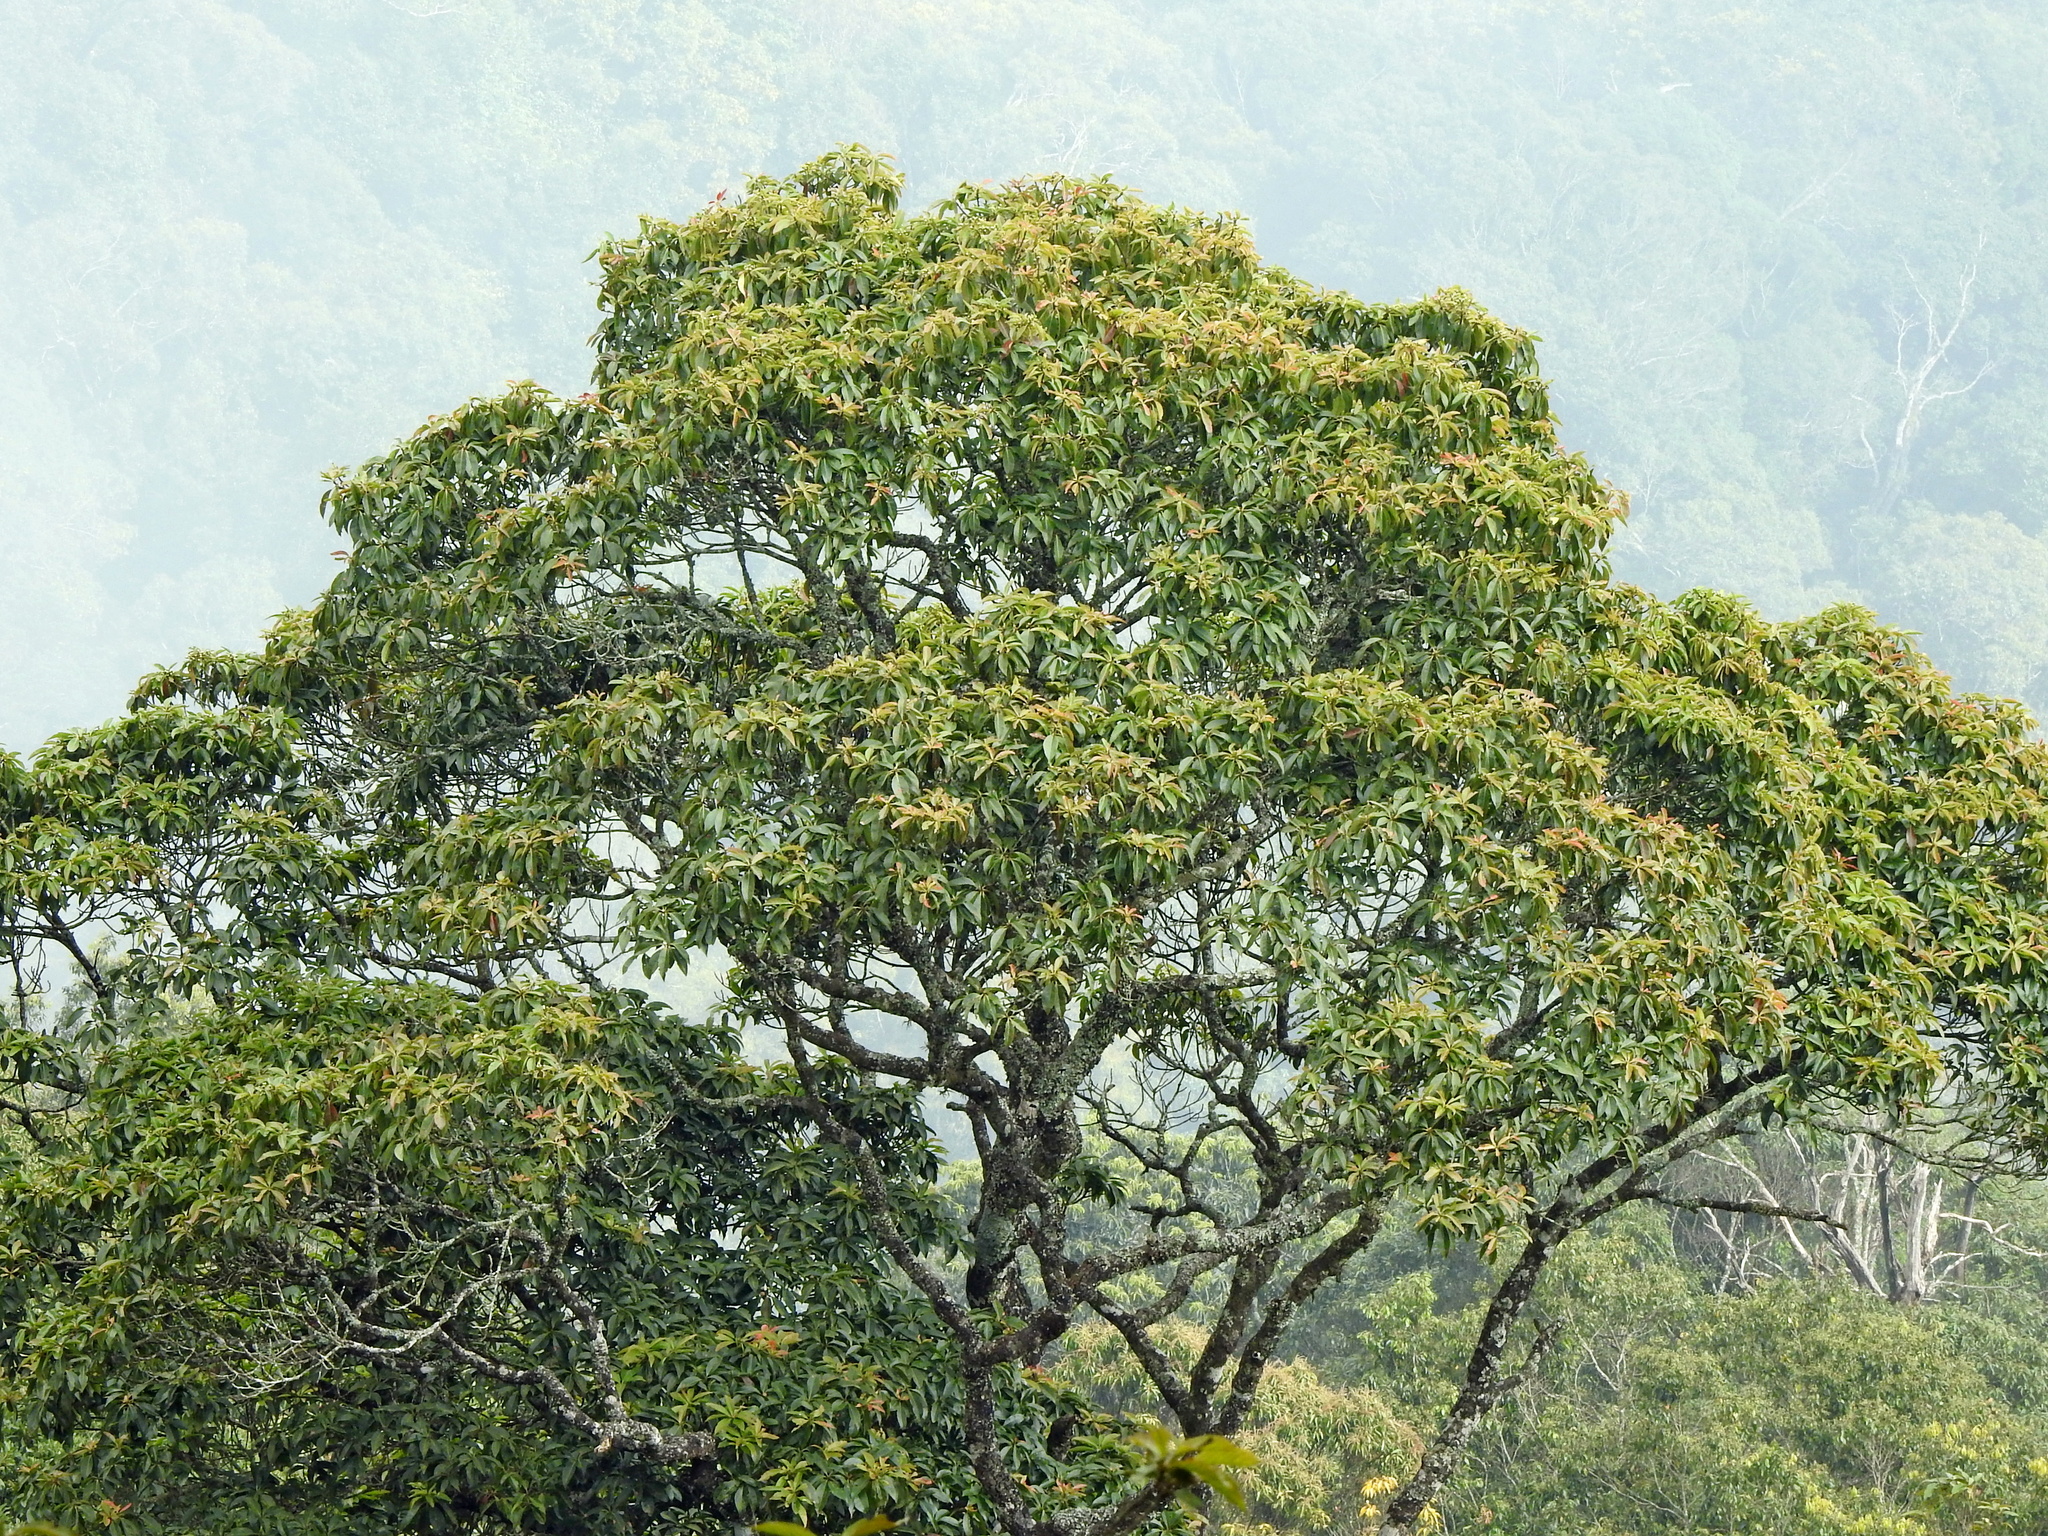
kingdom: Plantae
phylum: Tracheophyta
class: Magnoliopsida
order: Ericales
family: Theaceae
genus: Schima
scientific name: Schima superba
